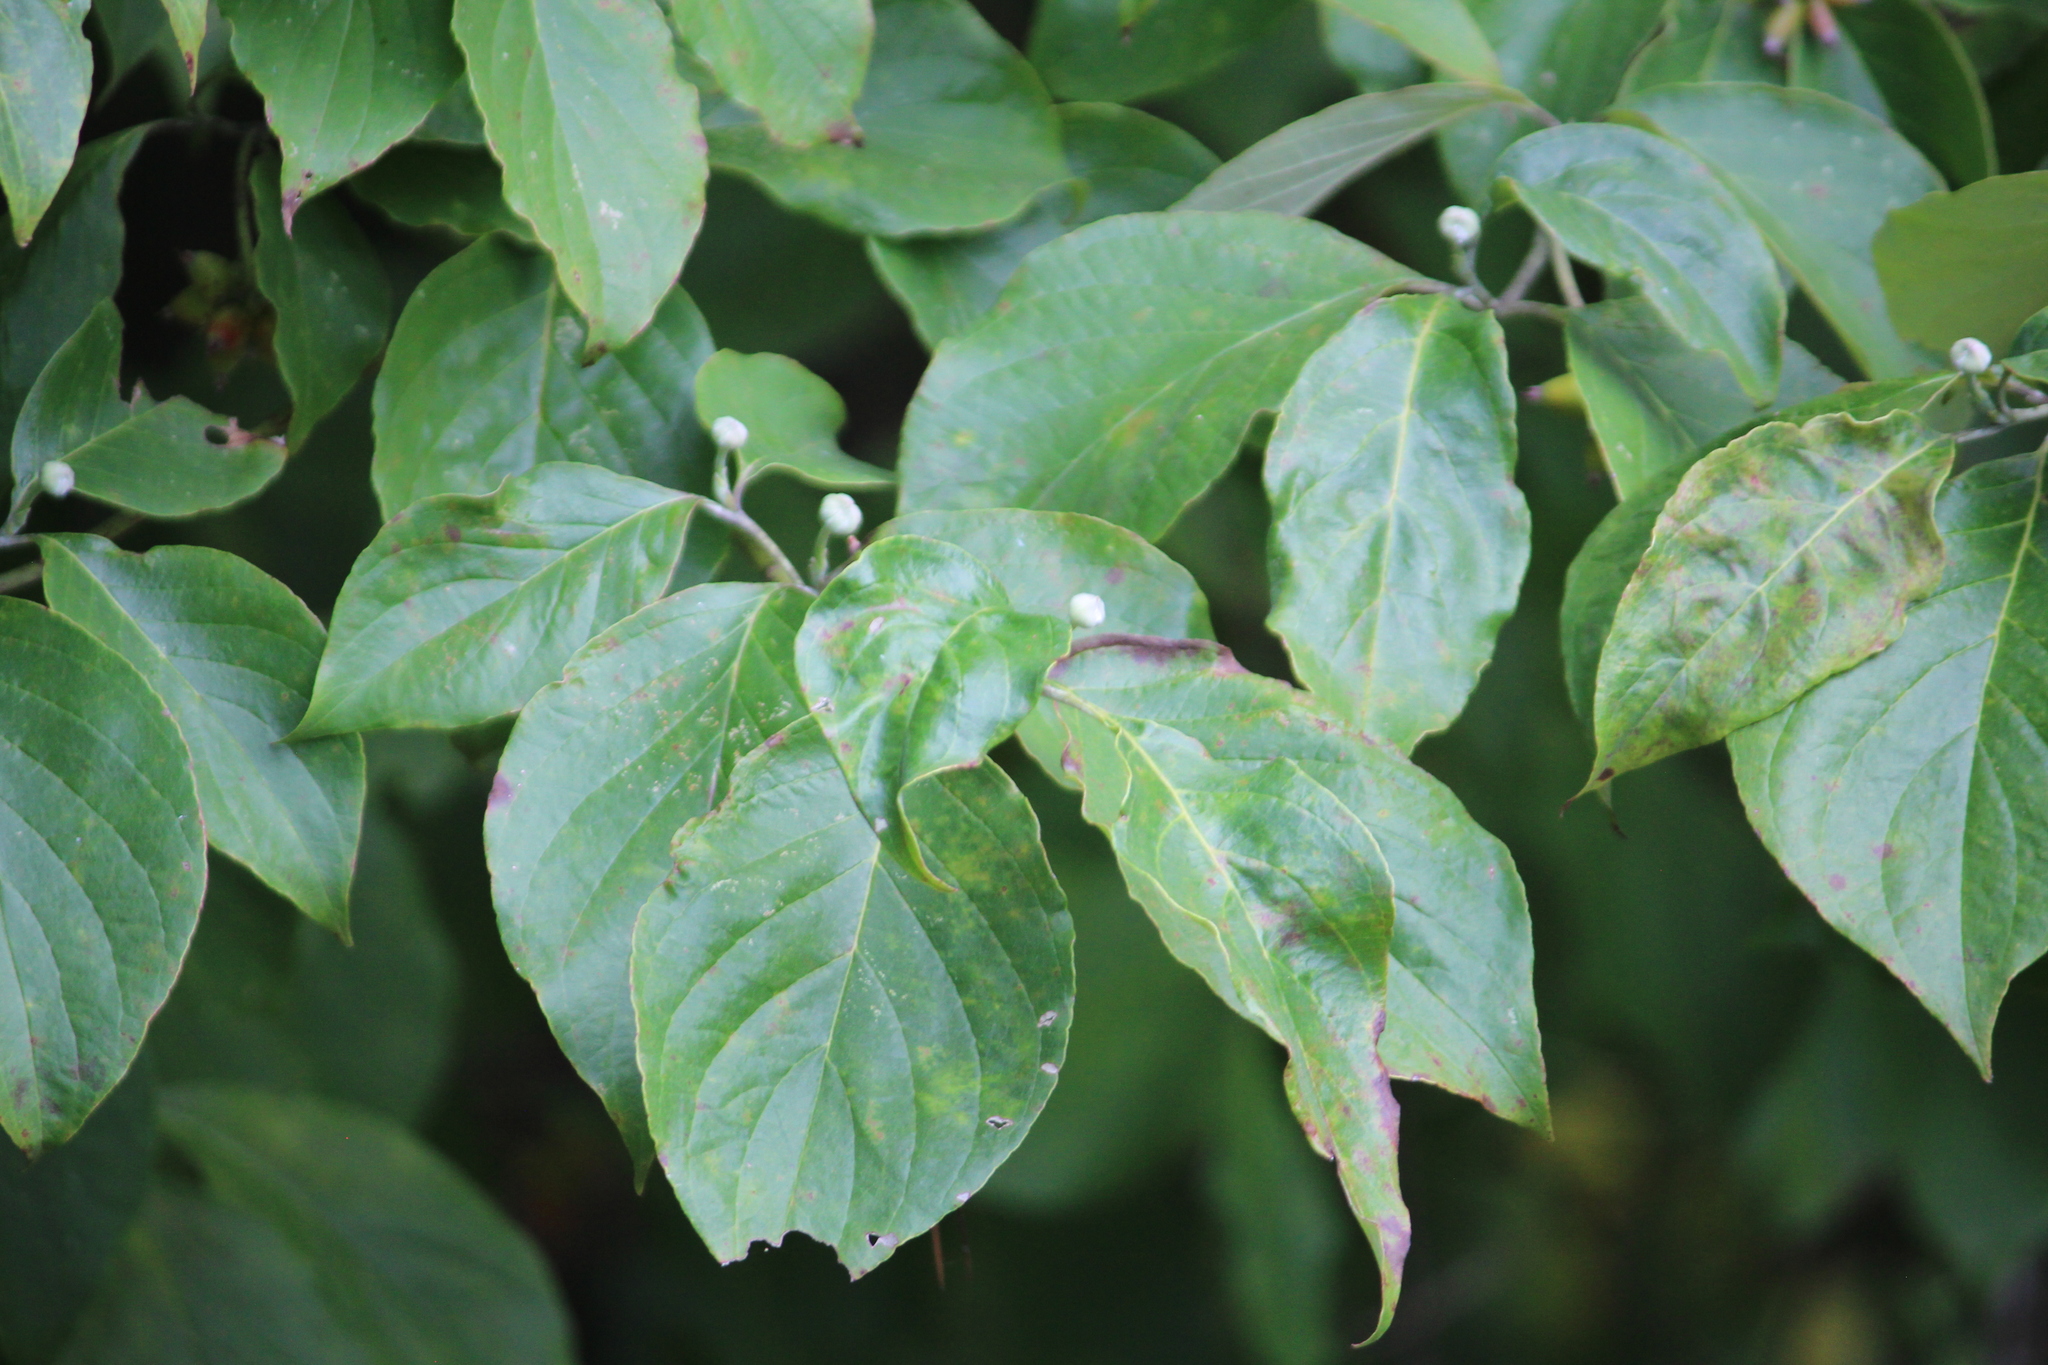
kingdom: Plantae
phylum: Tracheophyta
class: Magnoliopsida
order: Cornales
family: Cornaceae
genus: Cornus
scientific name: Cornus florida
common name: Flowering dogwood
